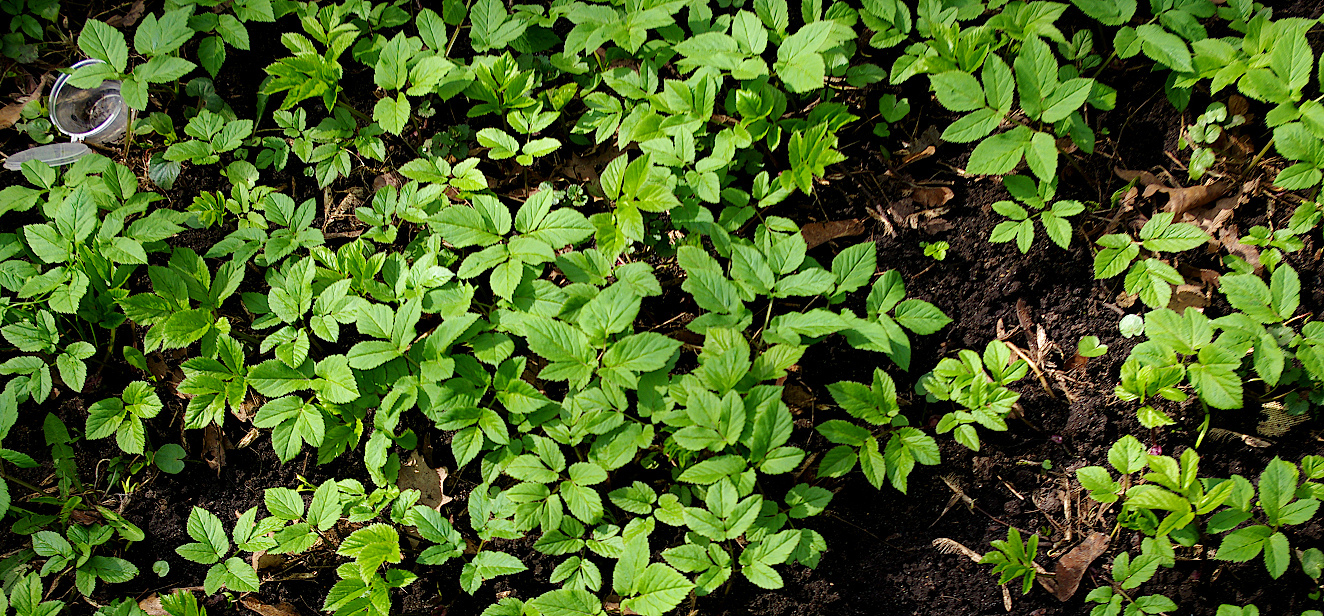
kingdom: Plantae
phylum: Tracheophyta
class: Magnoliopsida
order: Apiales
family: Apiaceae
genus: Aegopodium
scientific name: Aegopodium podagraria
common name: Ground-elder
